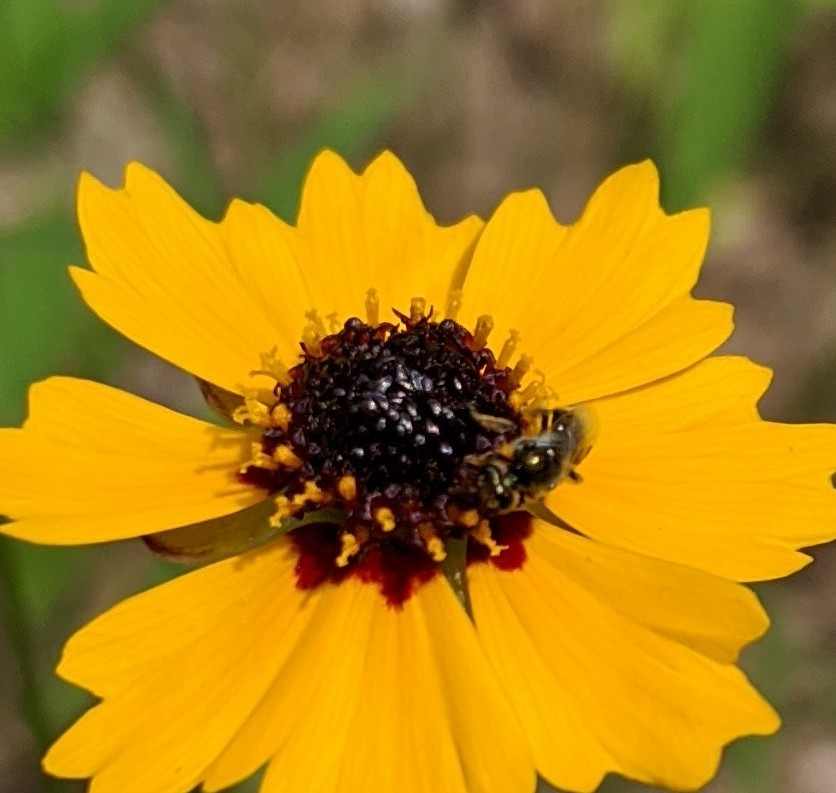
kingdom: Plantae
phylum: Tracheophyta
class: Magnoliopsida
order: Asterales
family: Asteraceae
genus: Coreopsis
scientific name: Coreopsis basalis
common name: Golden-mane coreopsis
